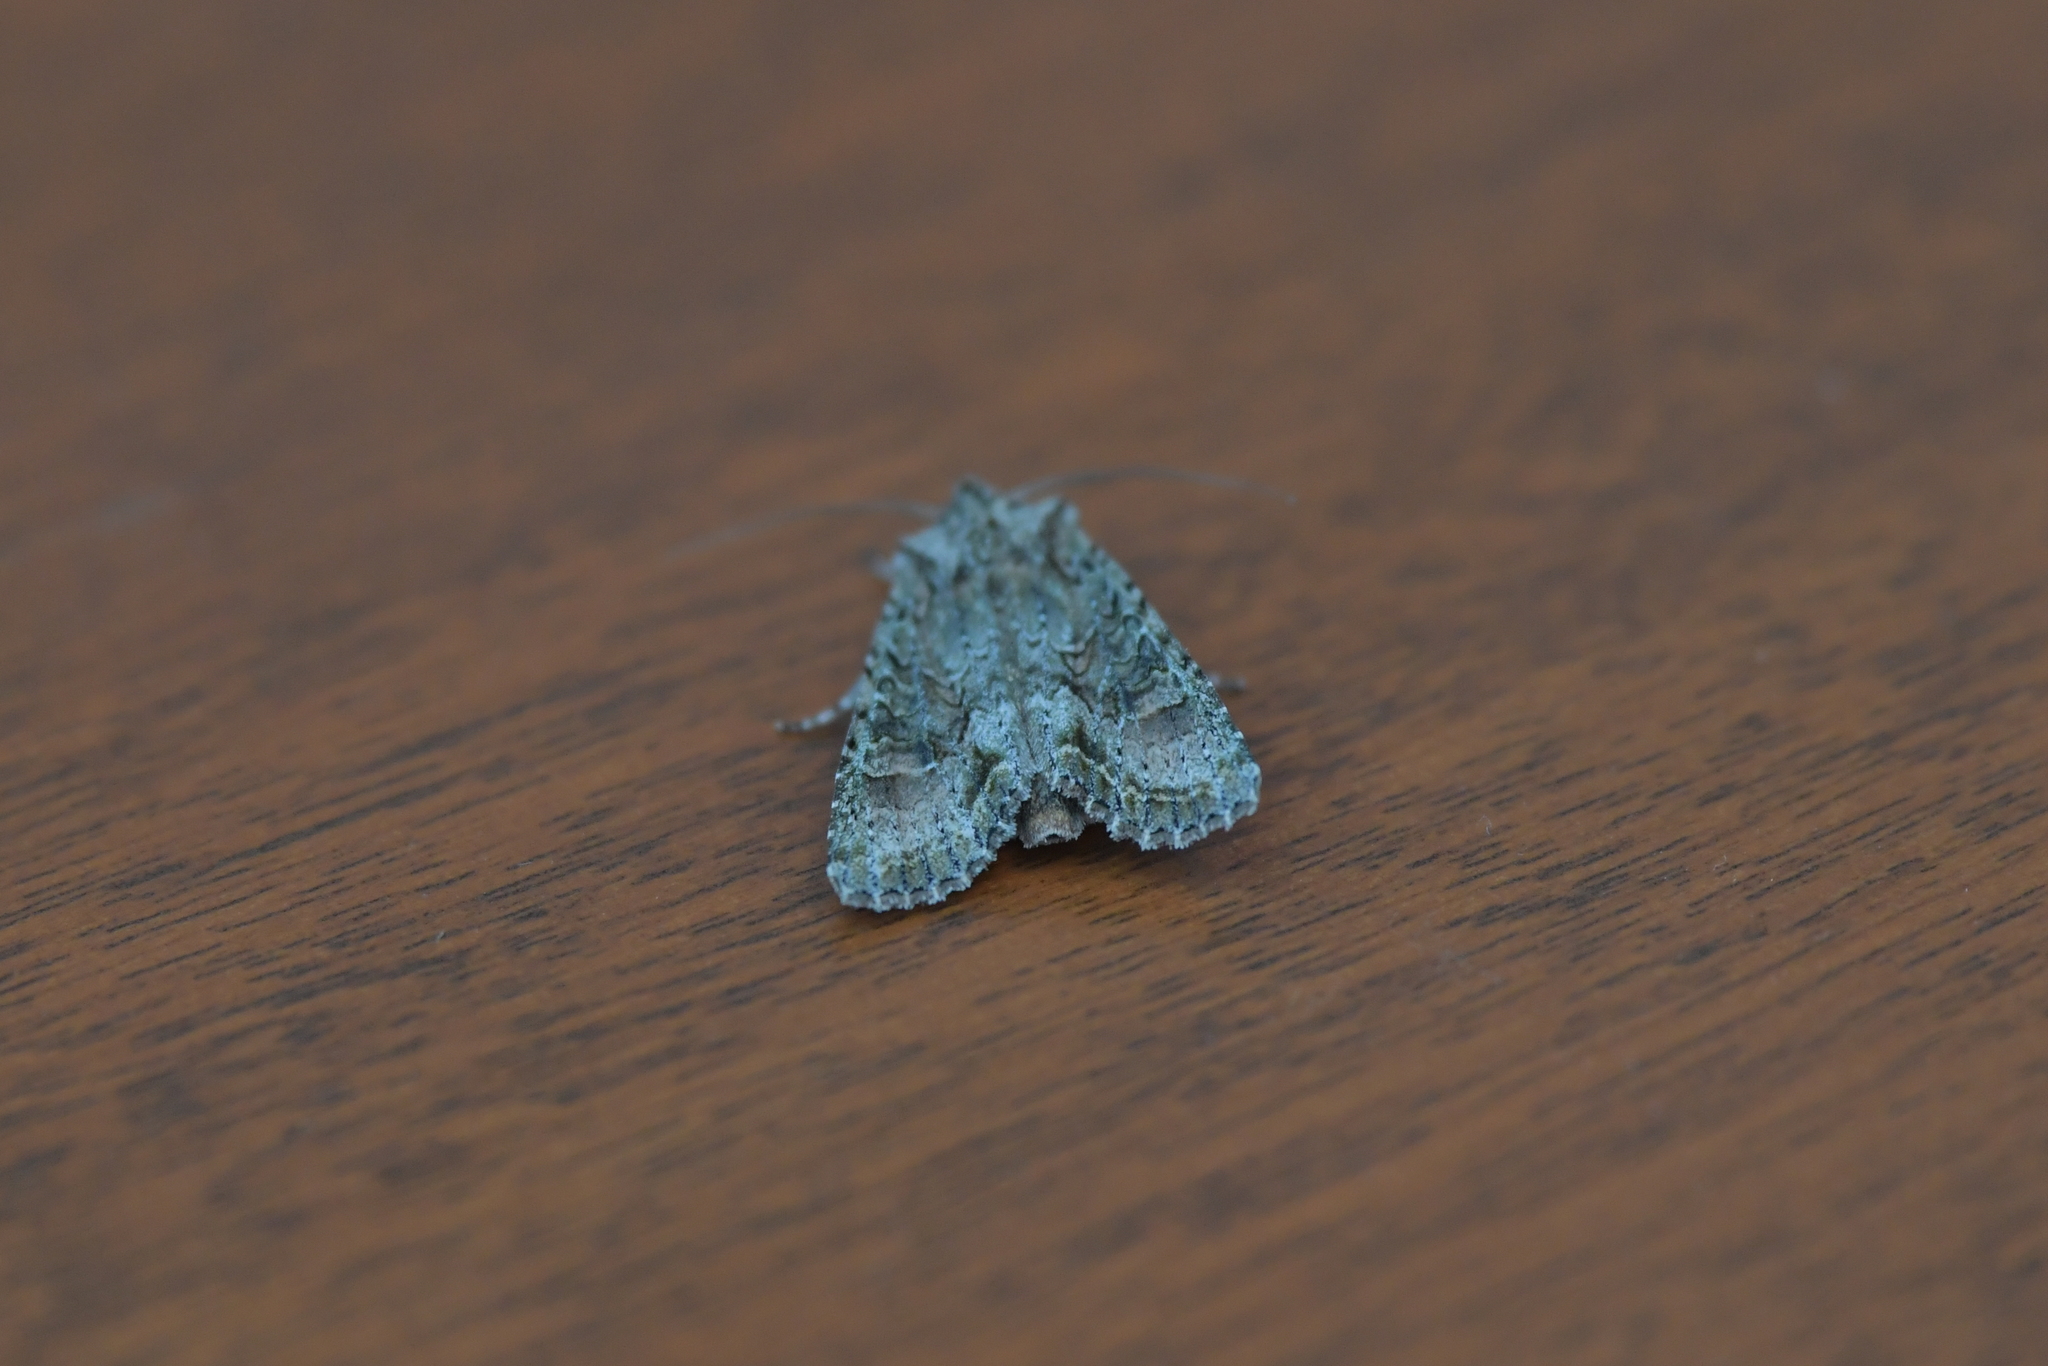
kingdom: Animalia
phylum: Arthropoda
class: Insecta
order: Lepidoptera
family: Noctuidae
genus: Ichneutica
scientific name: Ichneutica mutans
